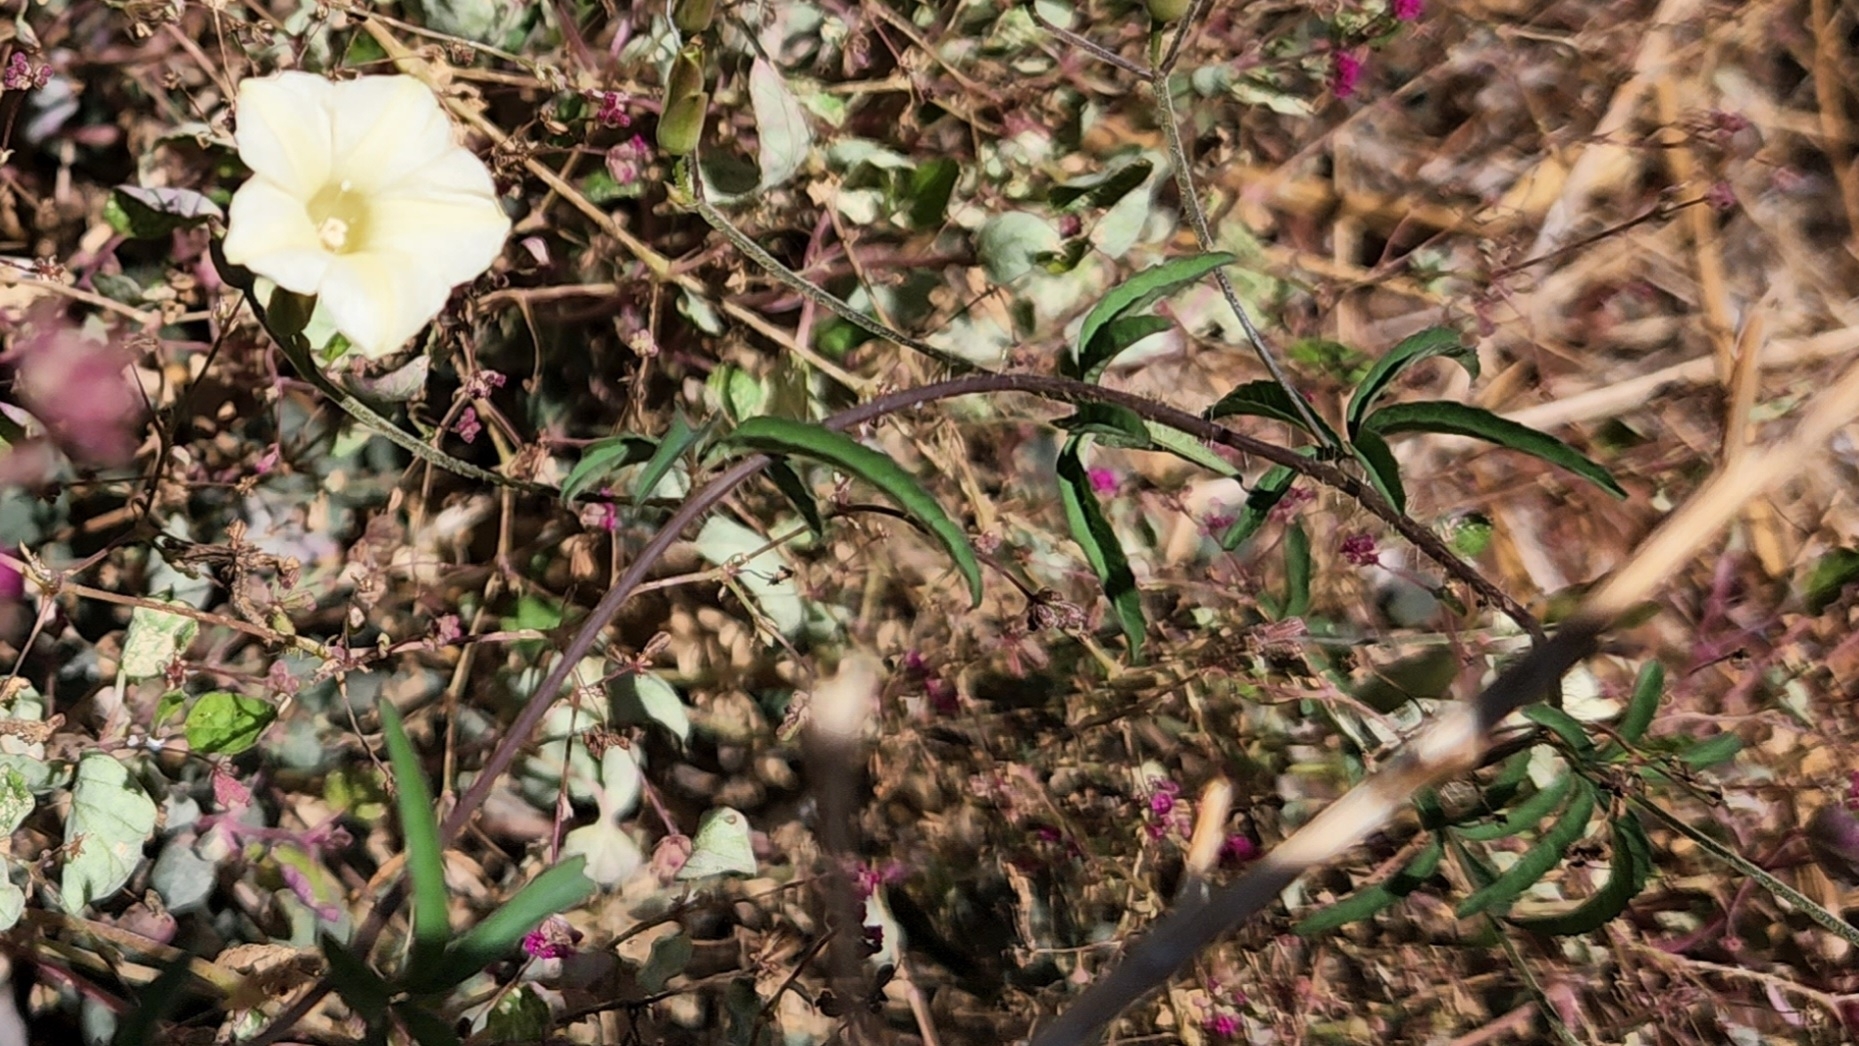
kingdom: Plantae
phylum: Tracheophyta
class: Magnoliopsida
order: Solanales
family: Convolvulaceae
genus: Distimake
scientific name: Distimake quinquefolius
